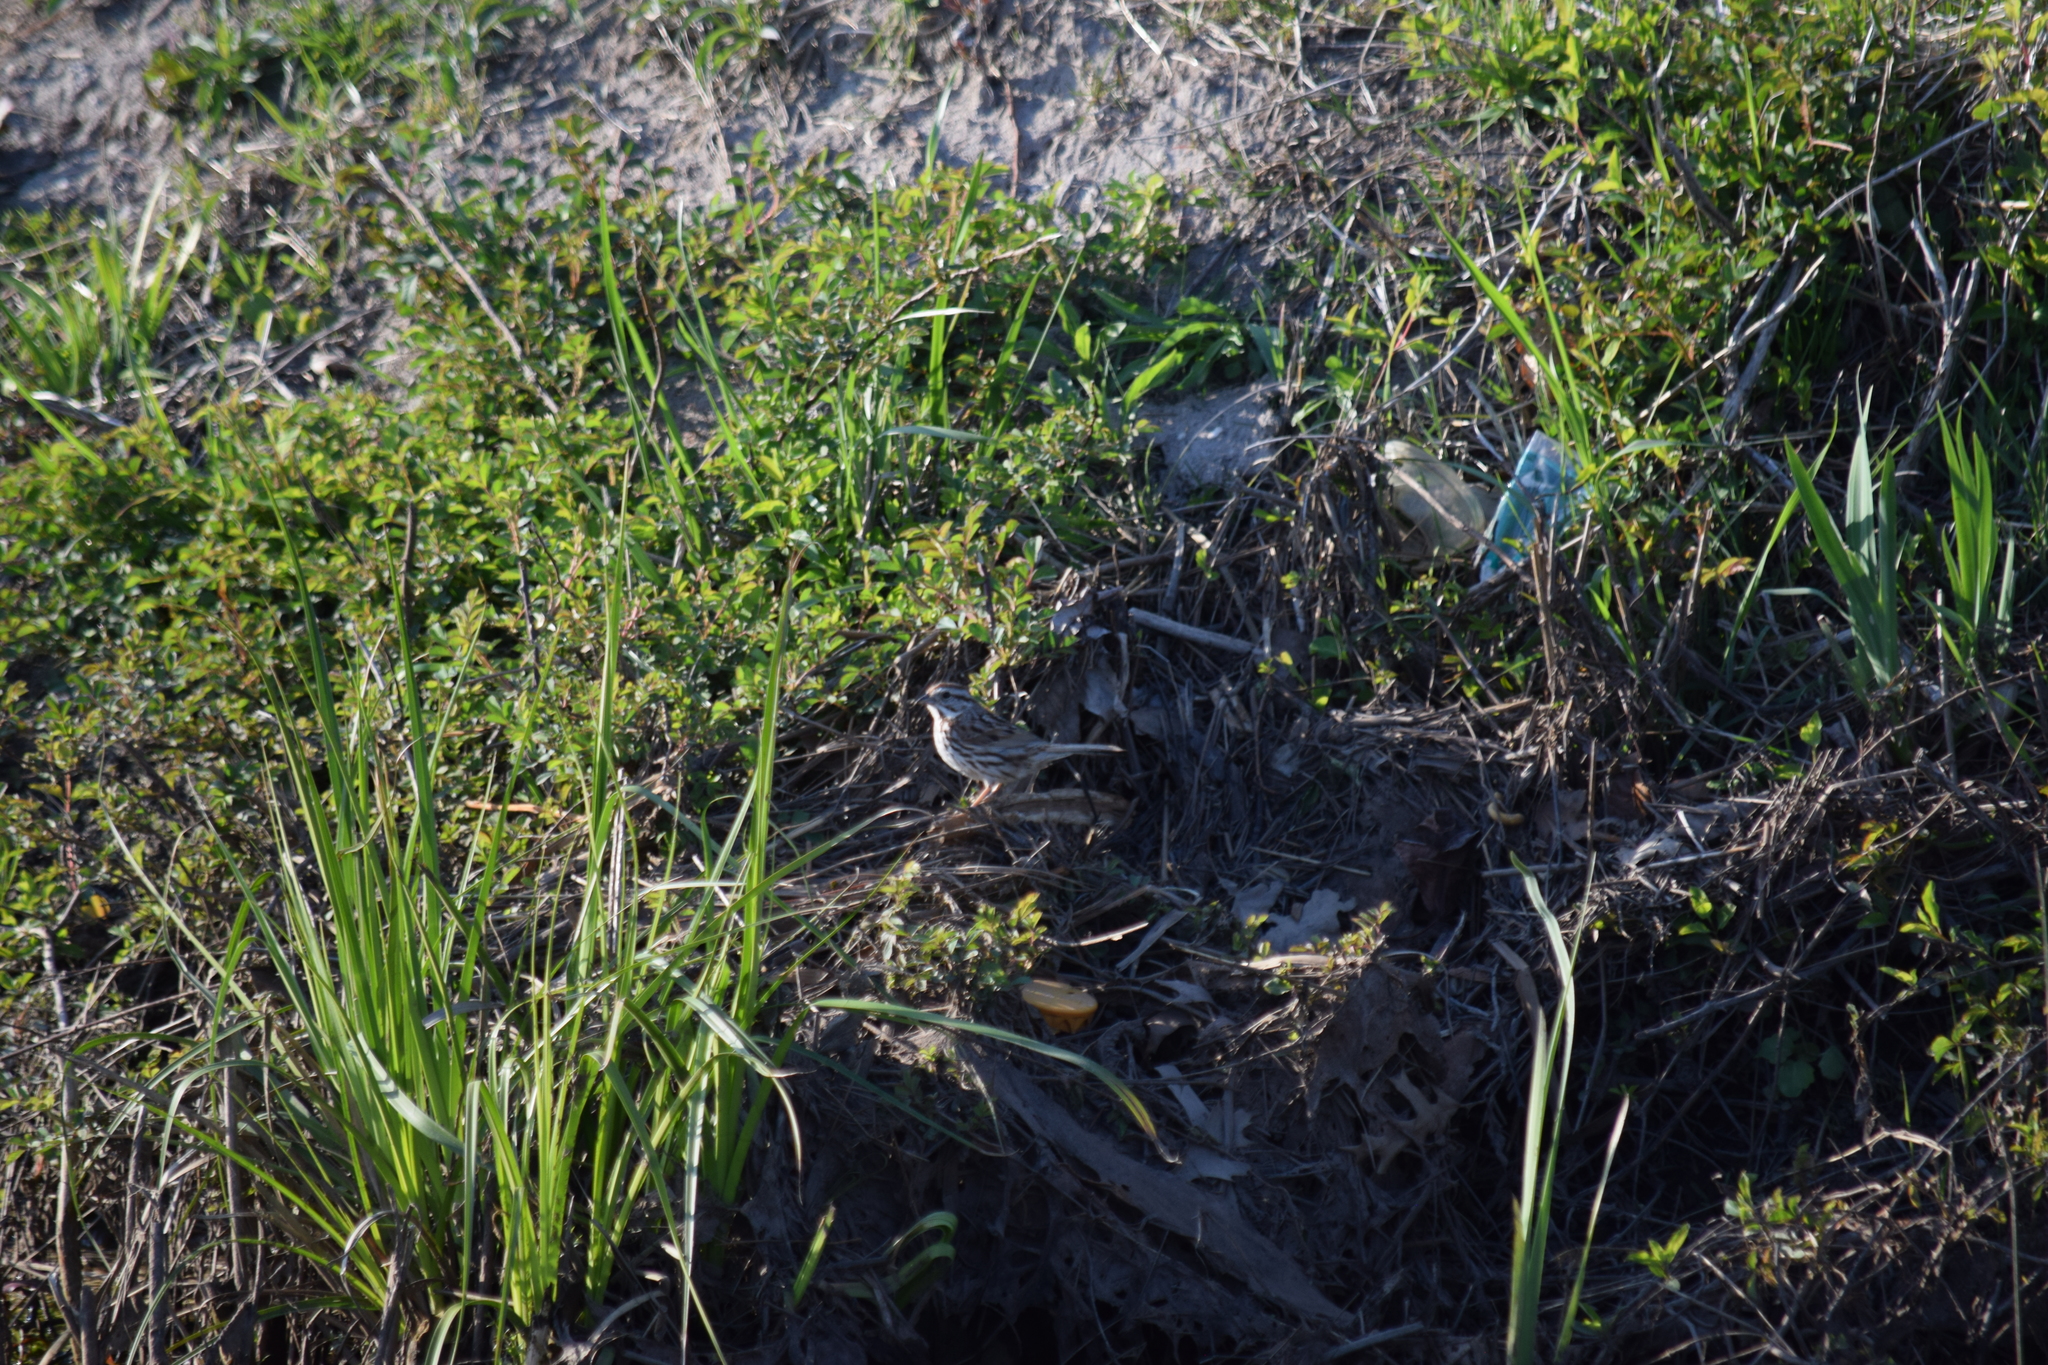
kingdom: Animalia
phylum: Chordata
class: Aves
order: Passeriformes
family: Passerellidae
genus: Melospiza
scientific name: Melospiza melodia
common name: Song sparrow
